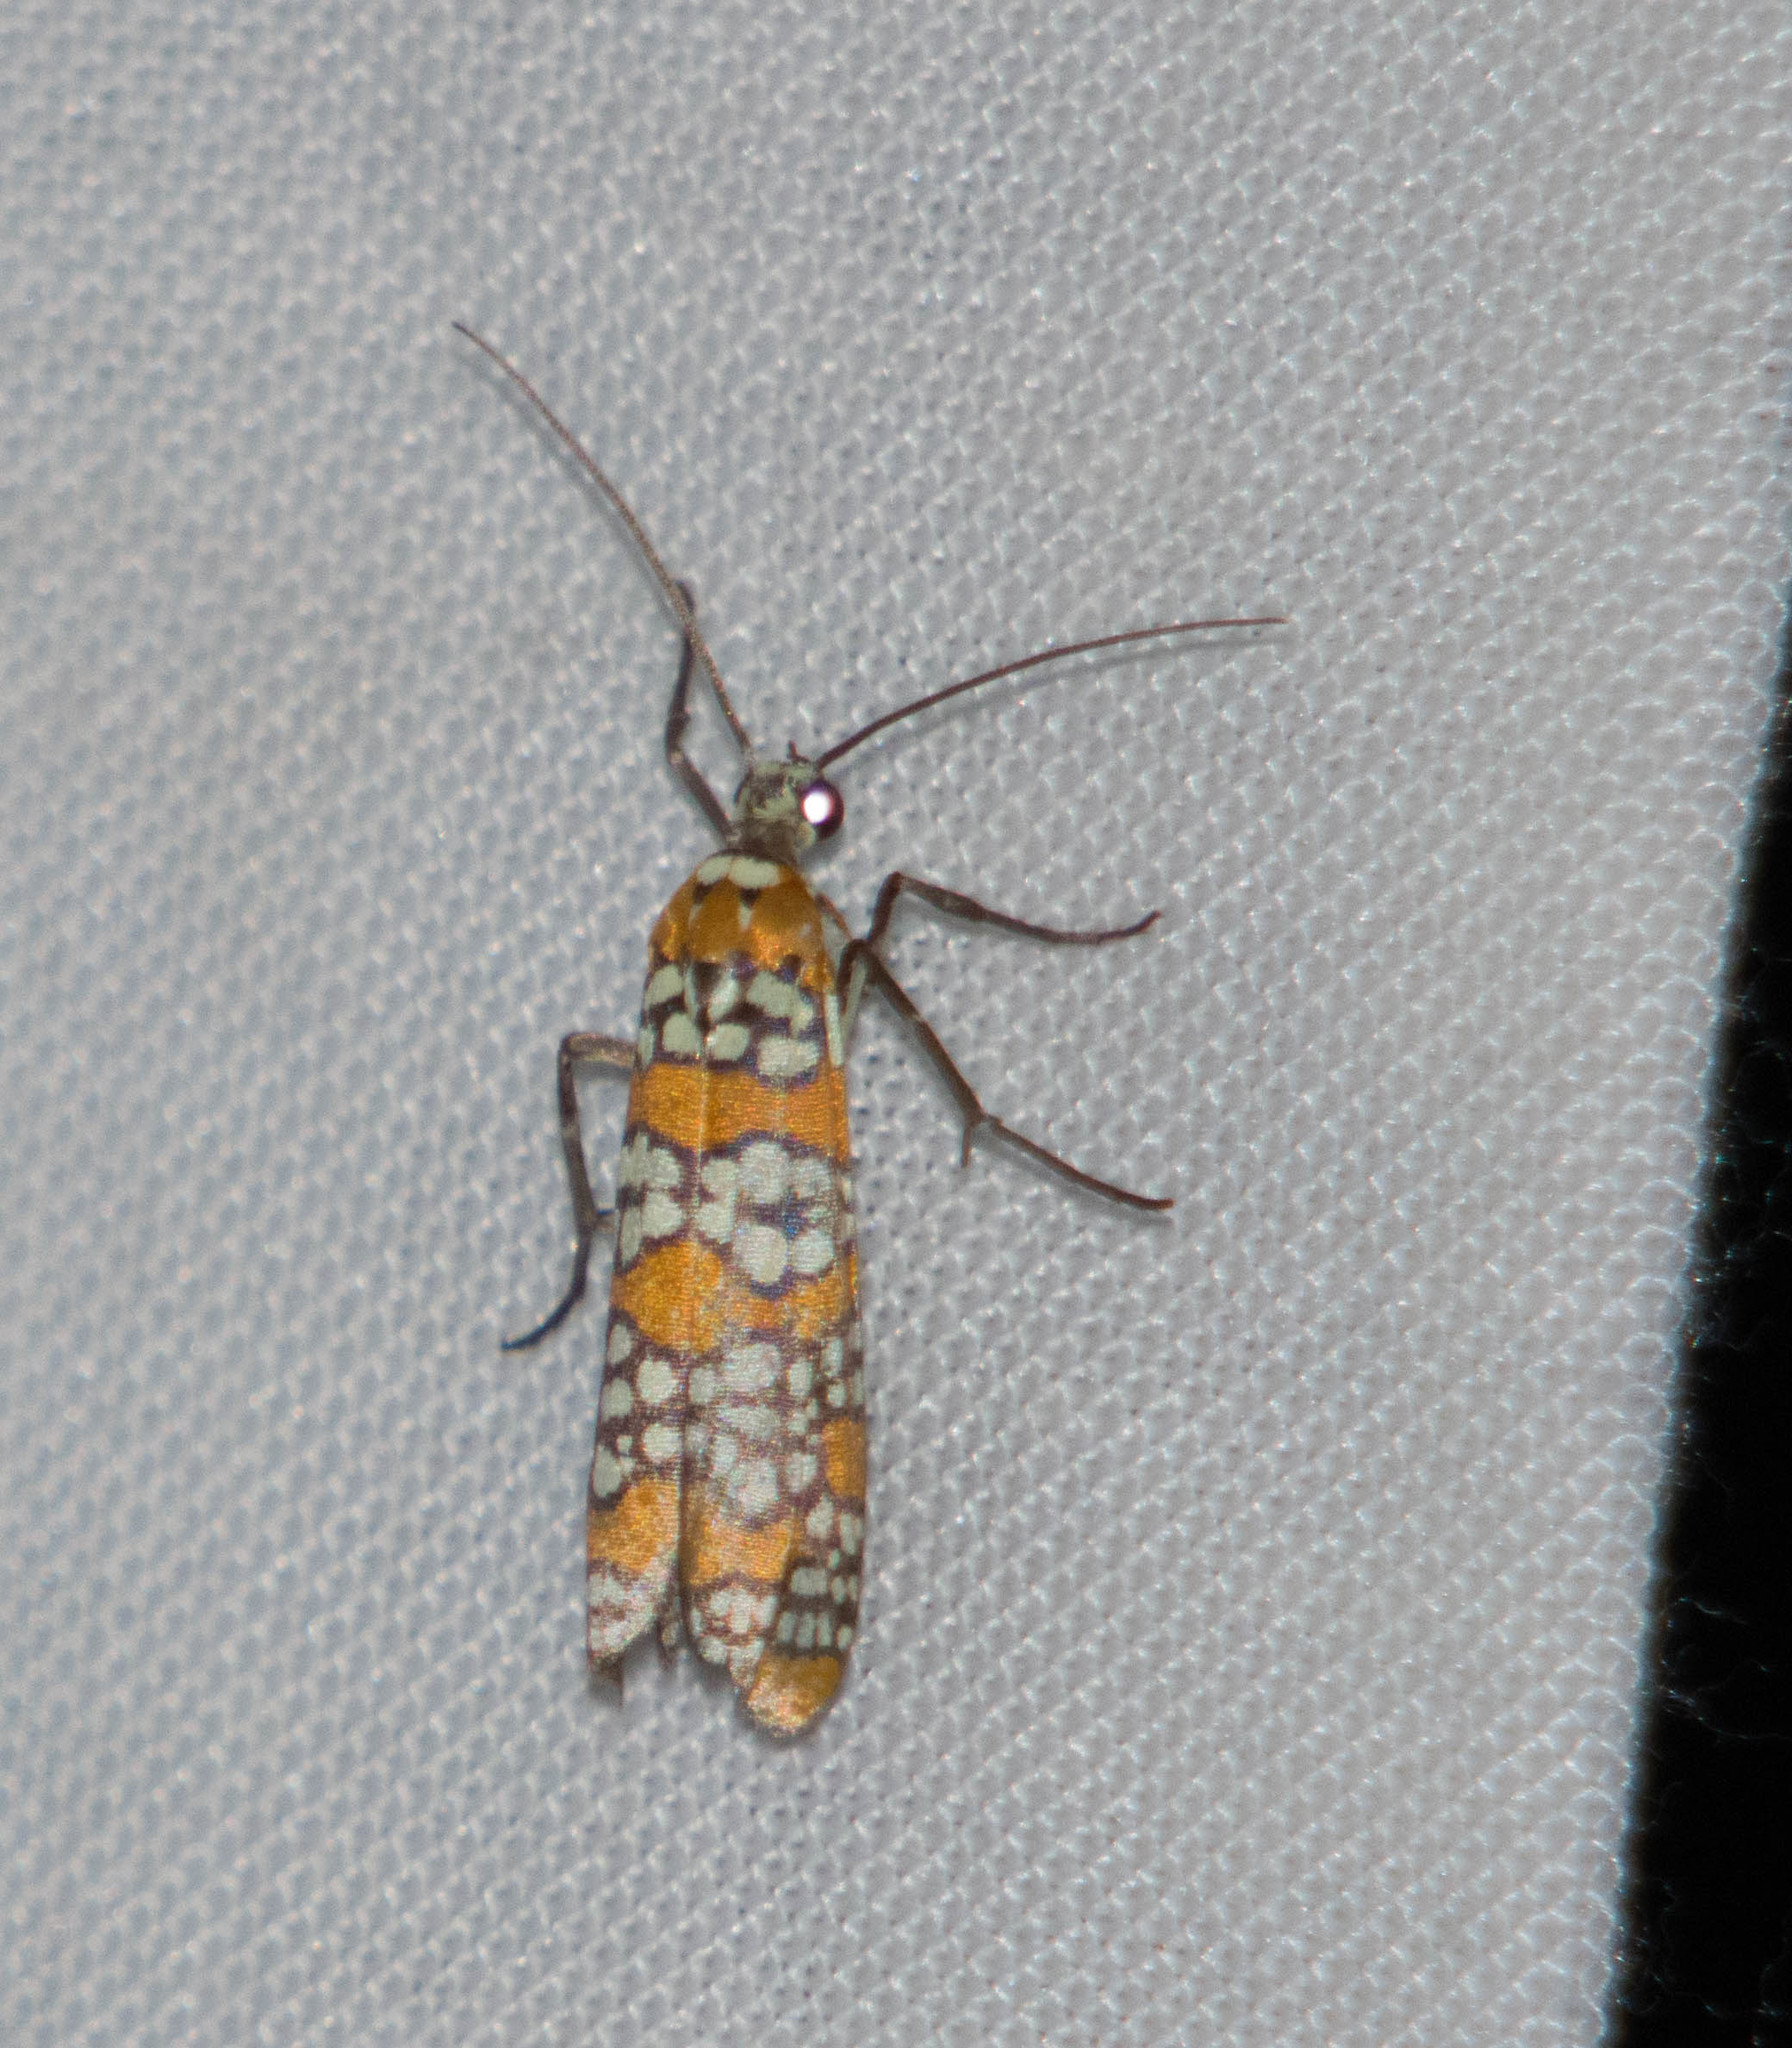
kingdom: Animalia
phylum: Arthropoda
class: Insecta
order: Lepidoptera
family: Attevidae
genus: Atteva
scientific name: Atteva punctella
